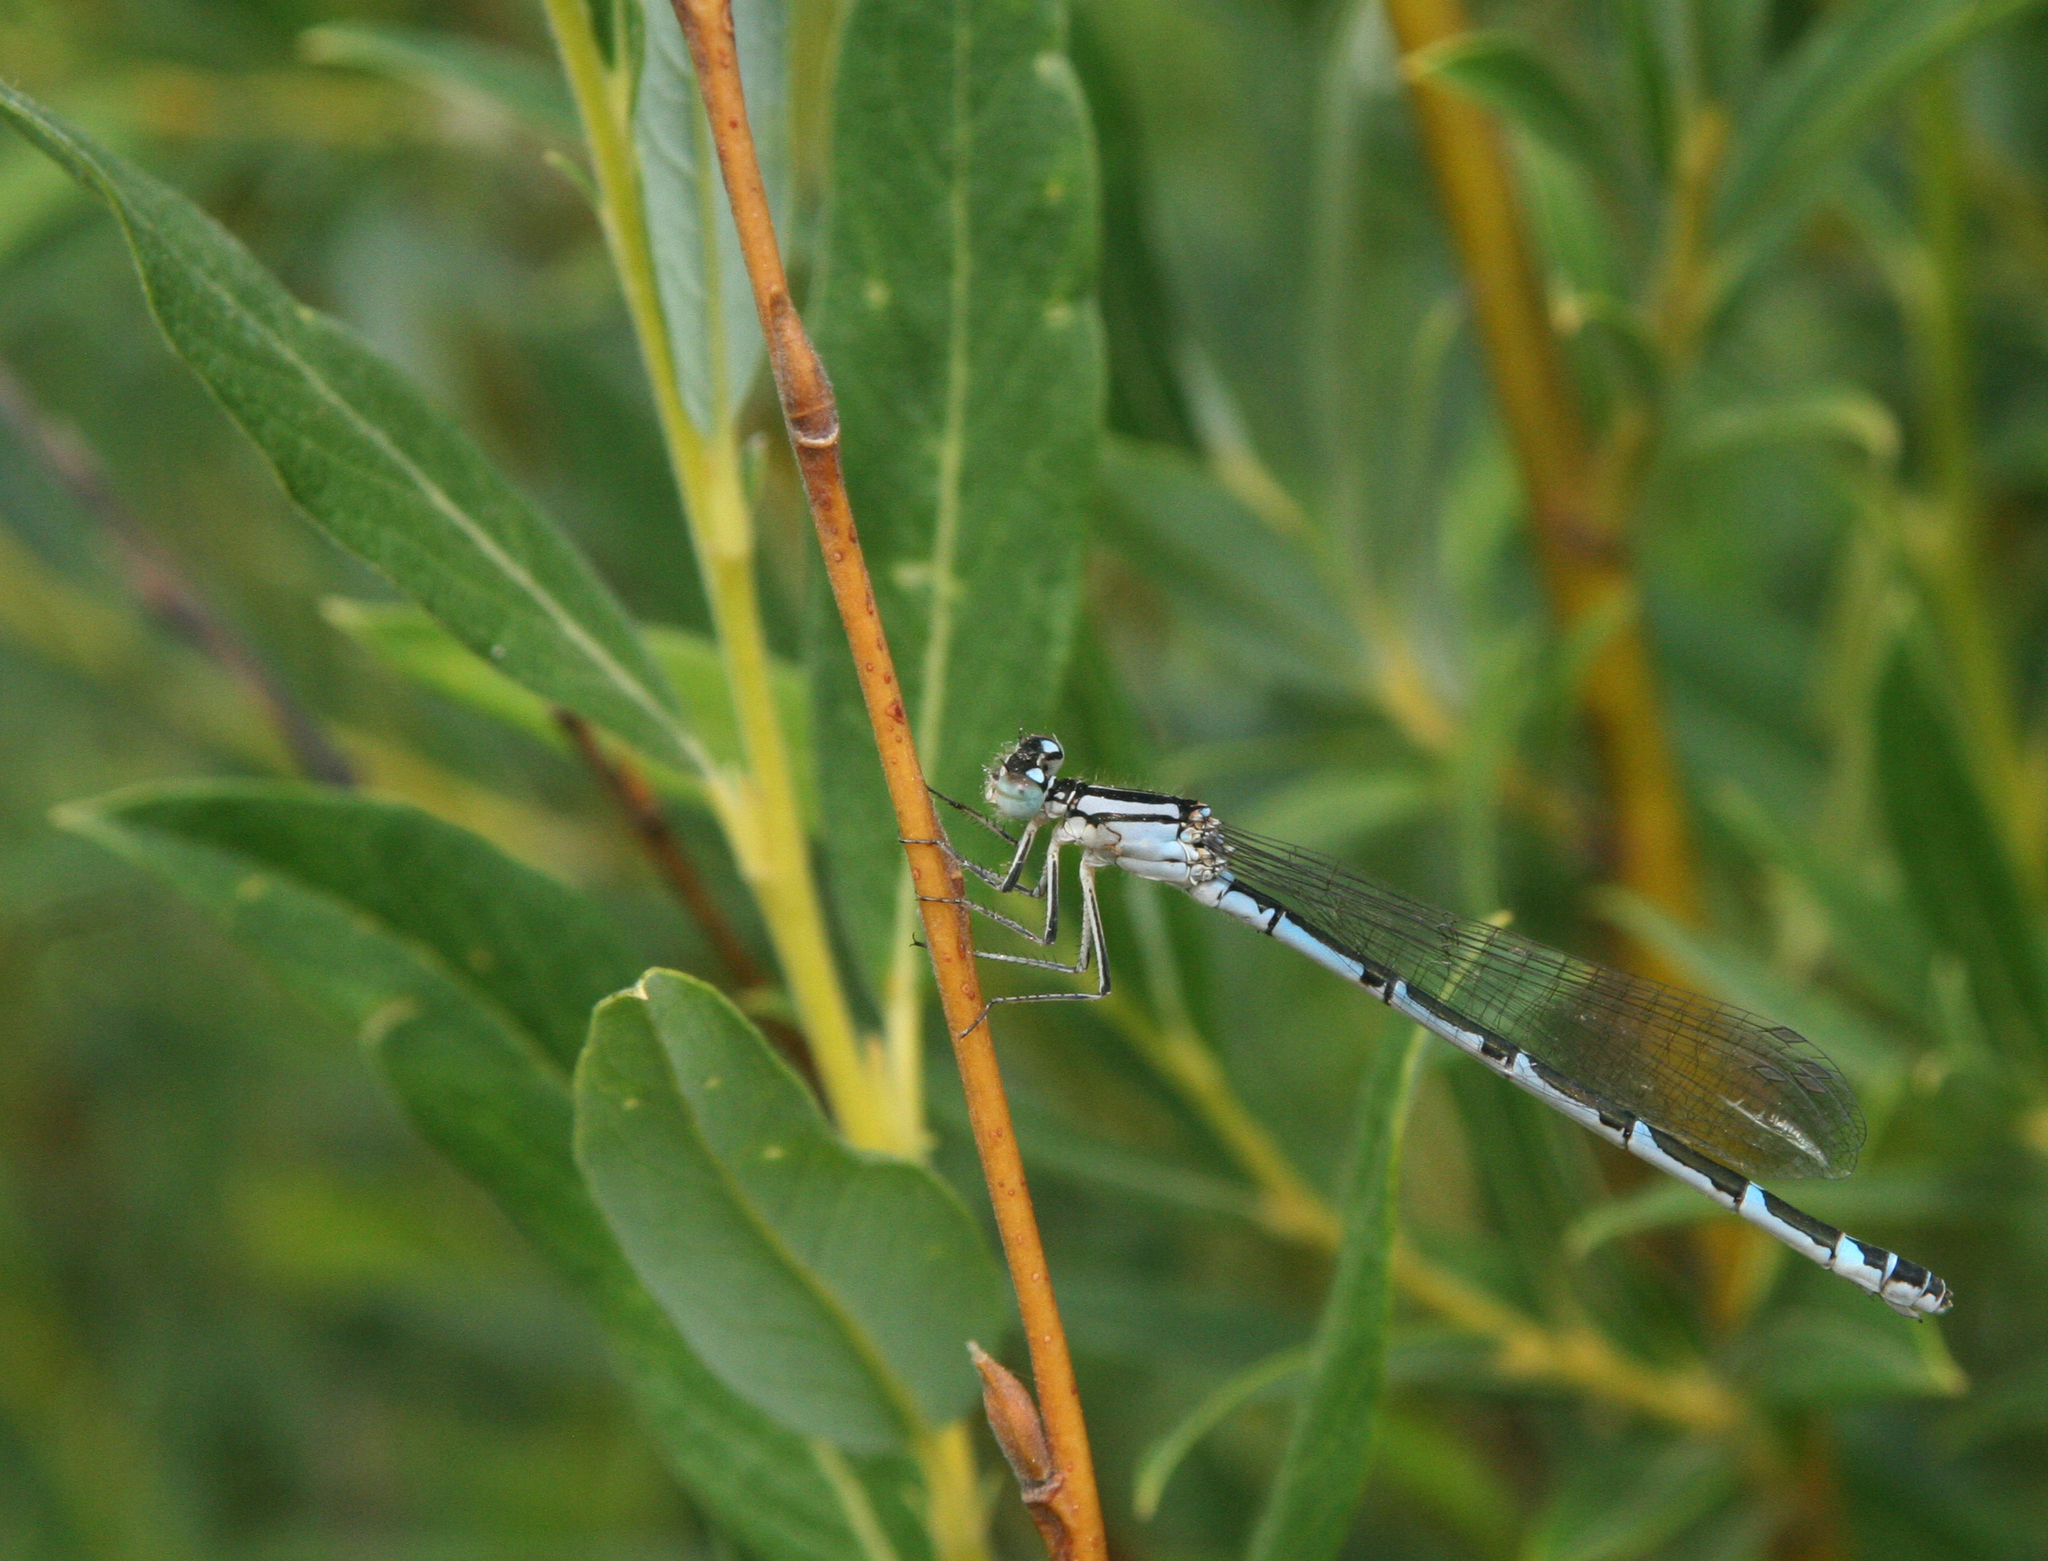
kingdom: Animalia
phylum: Arthropoda
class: Insecta
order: Odonata
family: Coenagrionidae
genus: Enallagma
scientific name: Enallagma cyathigerum
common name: Common blue damselfly
